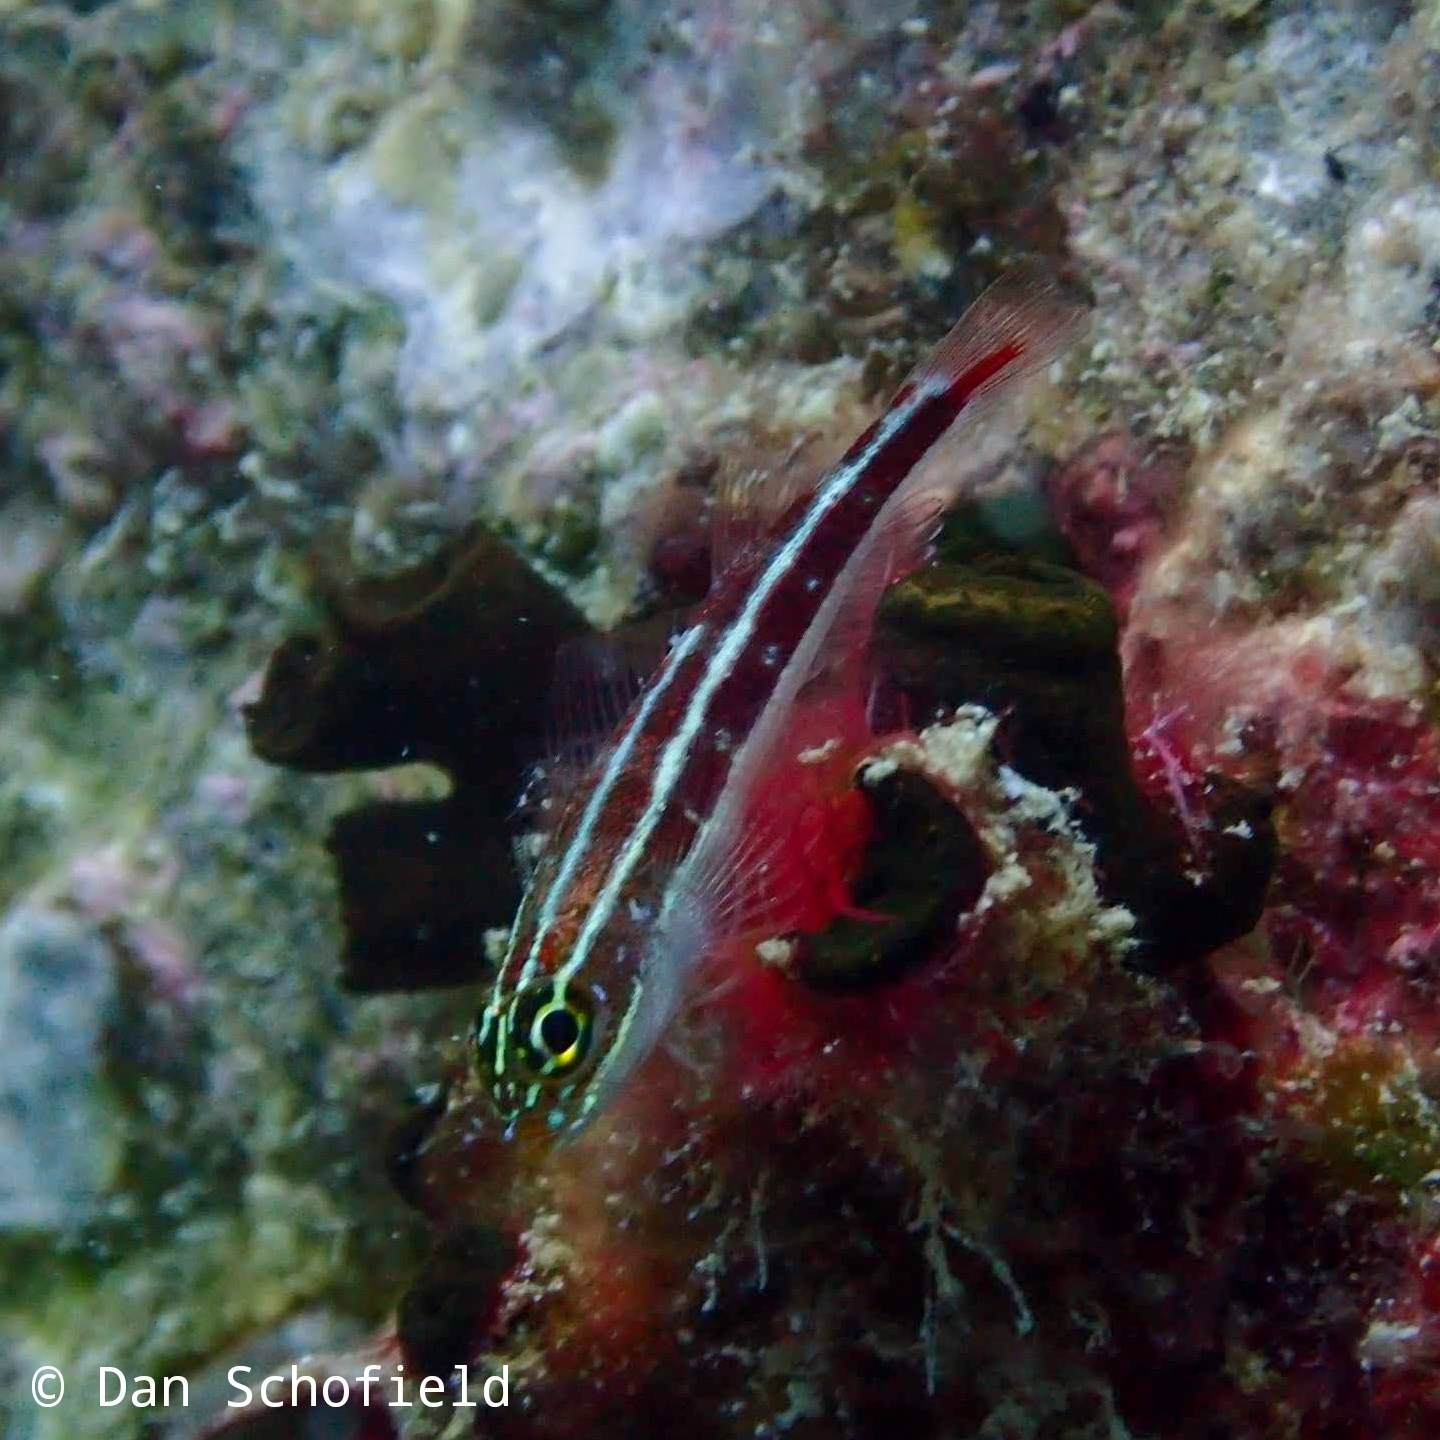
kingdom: Animalia
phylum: Chordata
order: Perciformes
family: Tripterygiidae
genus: Helcogramma
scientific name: Helcogramma striata
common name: Striped threefin
